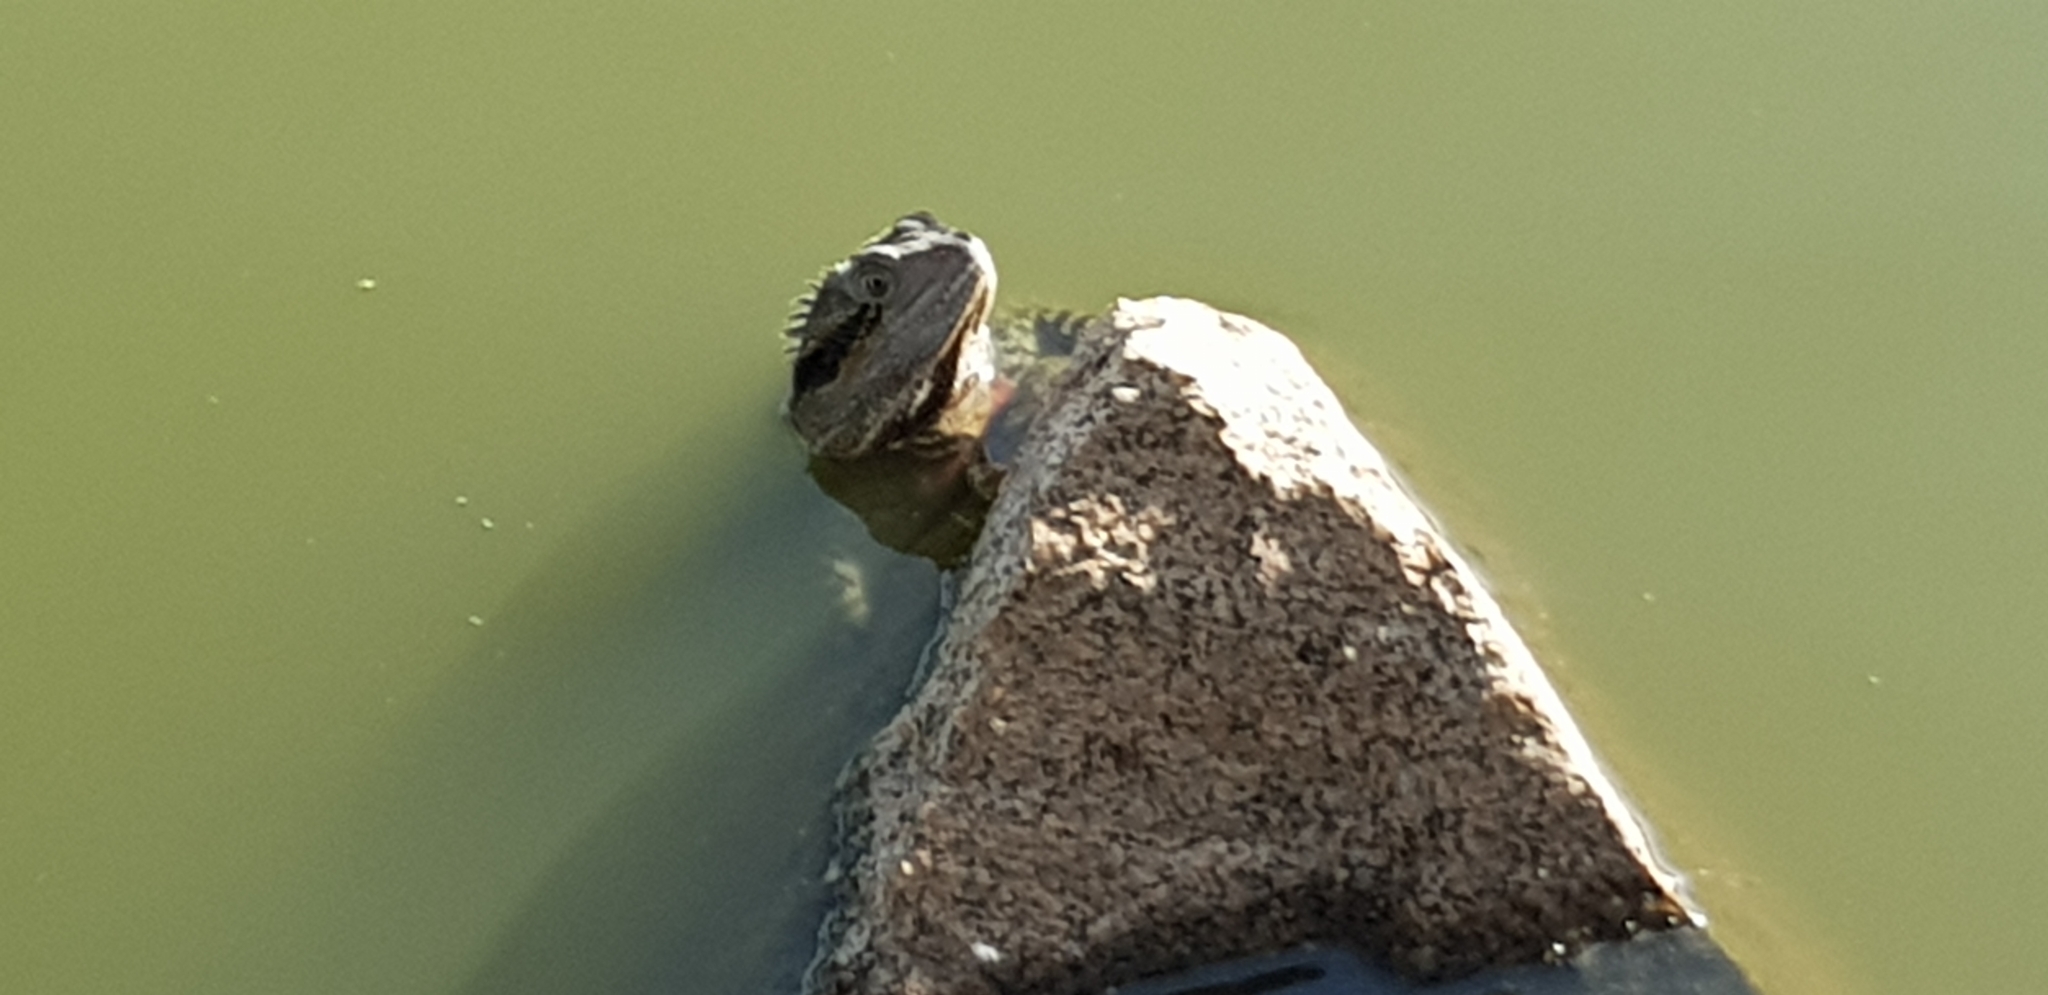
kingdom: Animalia
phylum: Chordata
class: Squamata
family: Agamidae
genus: Intellagama
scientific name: Intellagama lesueurii
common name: Eastern water dragon
